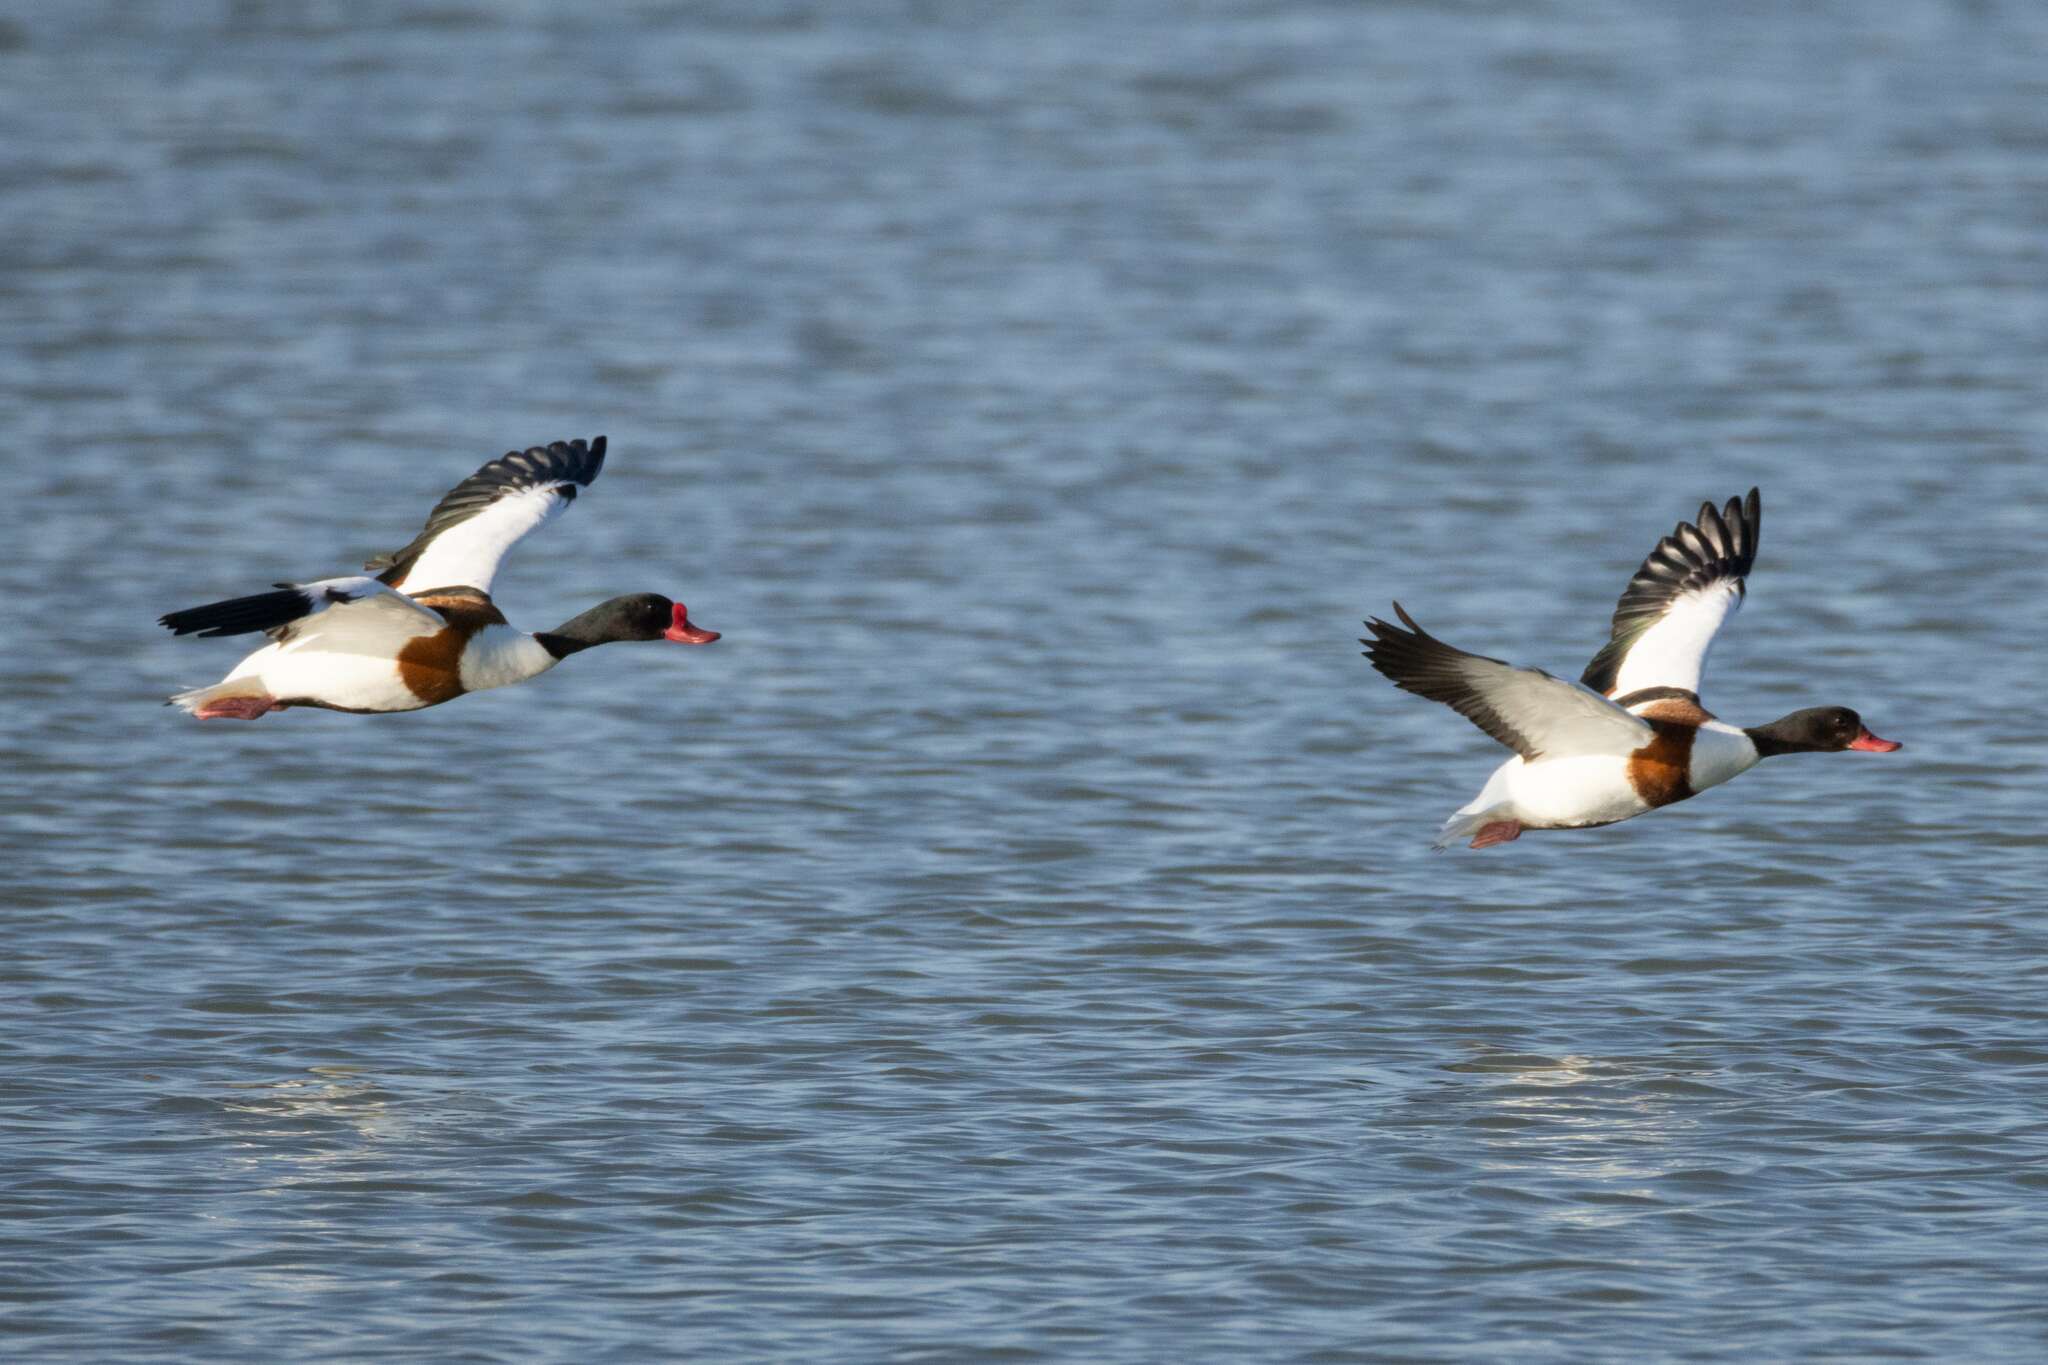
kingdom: Animalia
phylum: Chordata
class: Aves
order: Anseriformes
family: Anatidae
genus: Tadorna
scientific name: Tadorna tadorna
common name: Common shelduck
